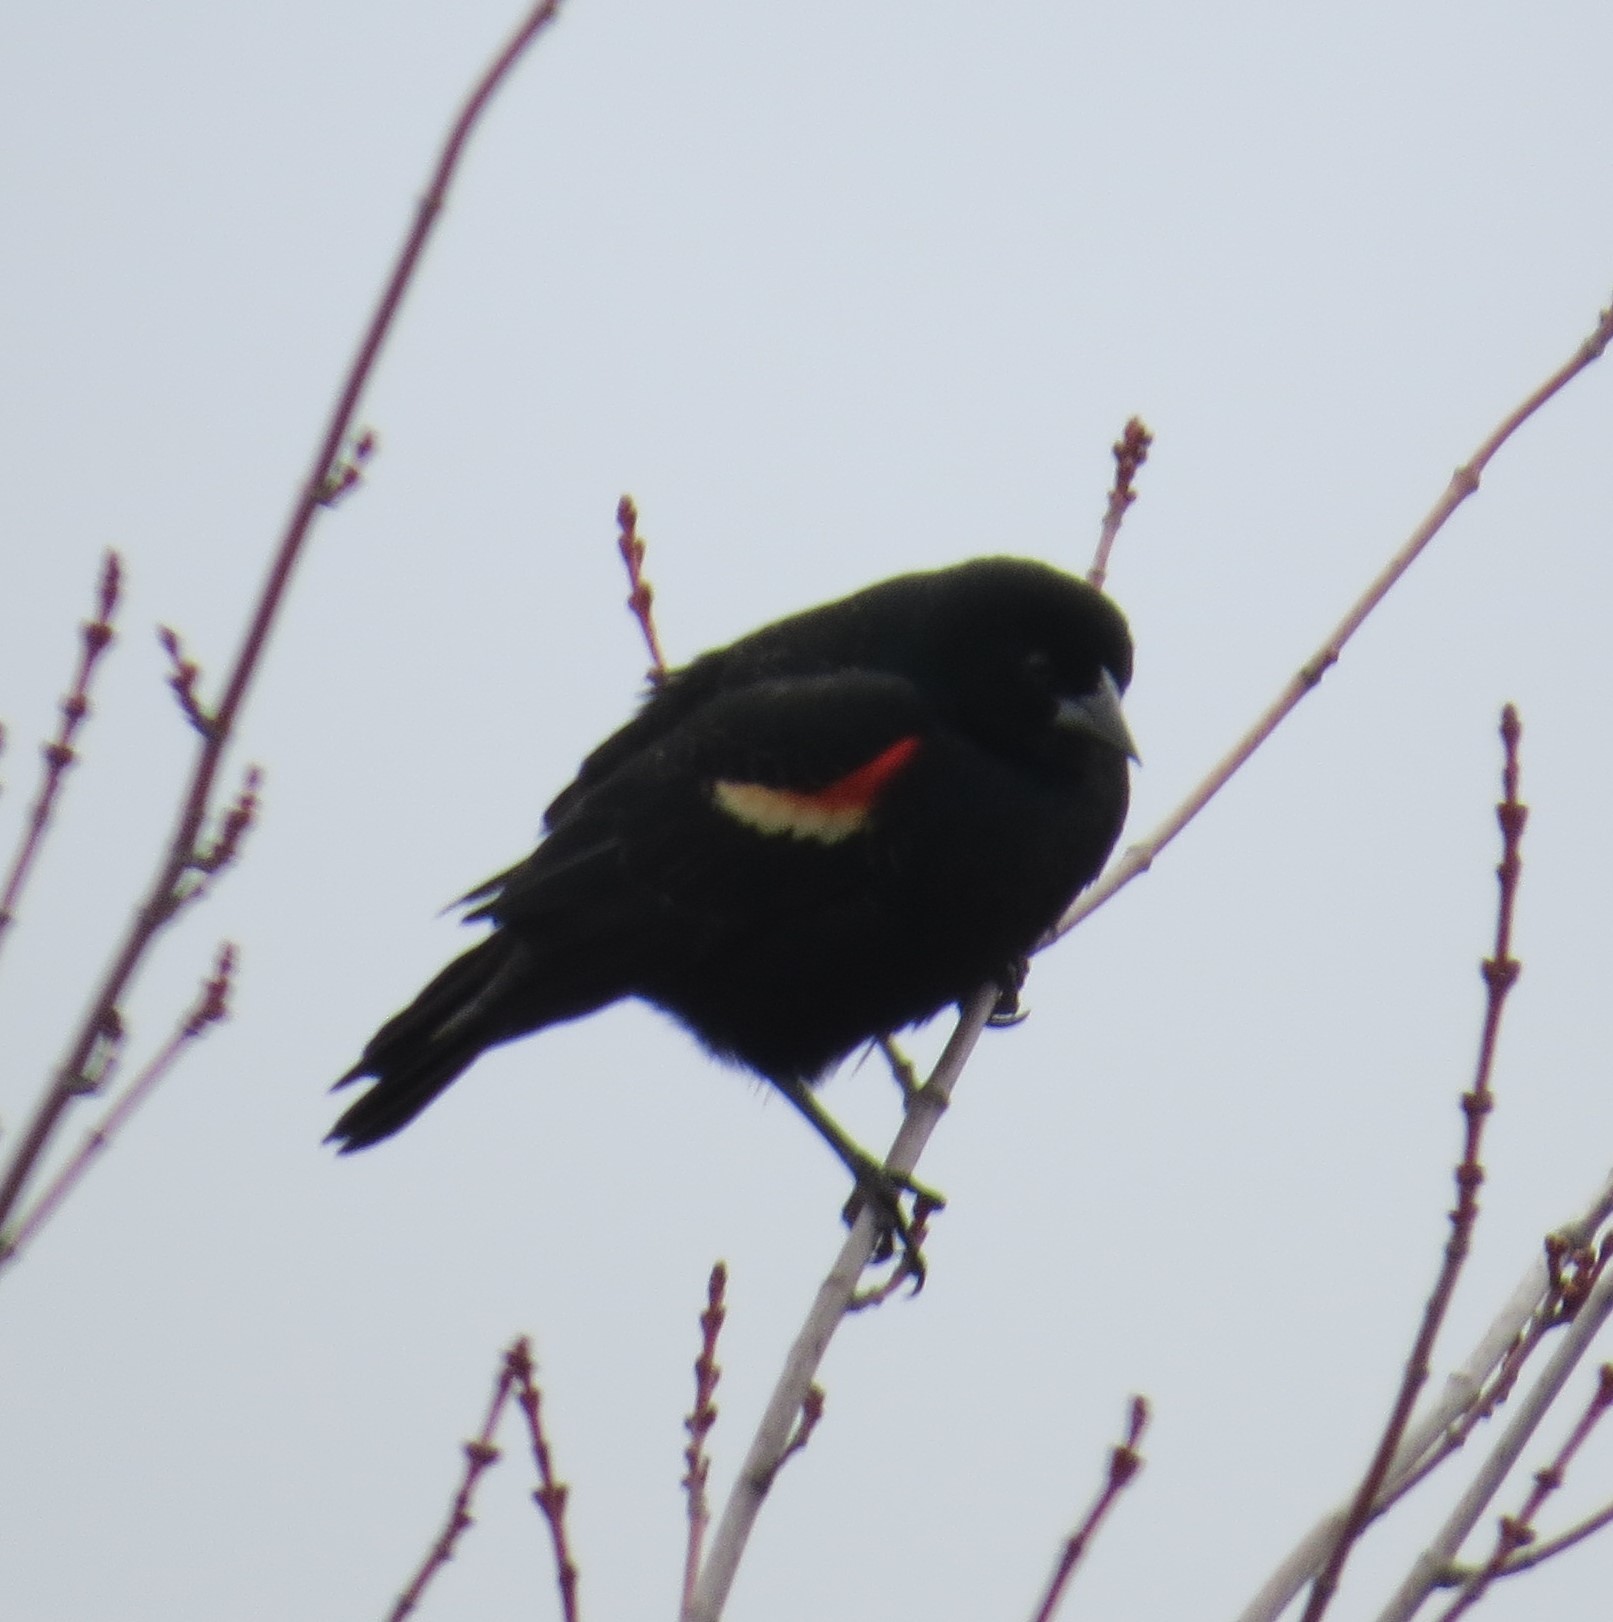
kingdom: Animalia
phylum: Chordata
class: Aves
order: Passeriformes
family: Icteridae
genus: Agelaius
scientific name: Agelaius phoeniceus
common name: Red-winged blackbird
